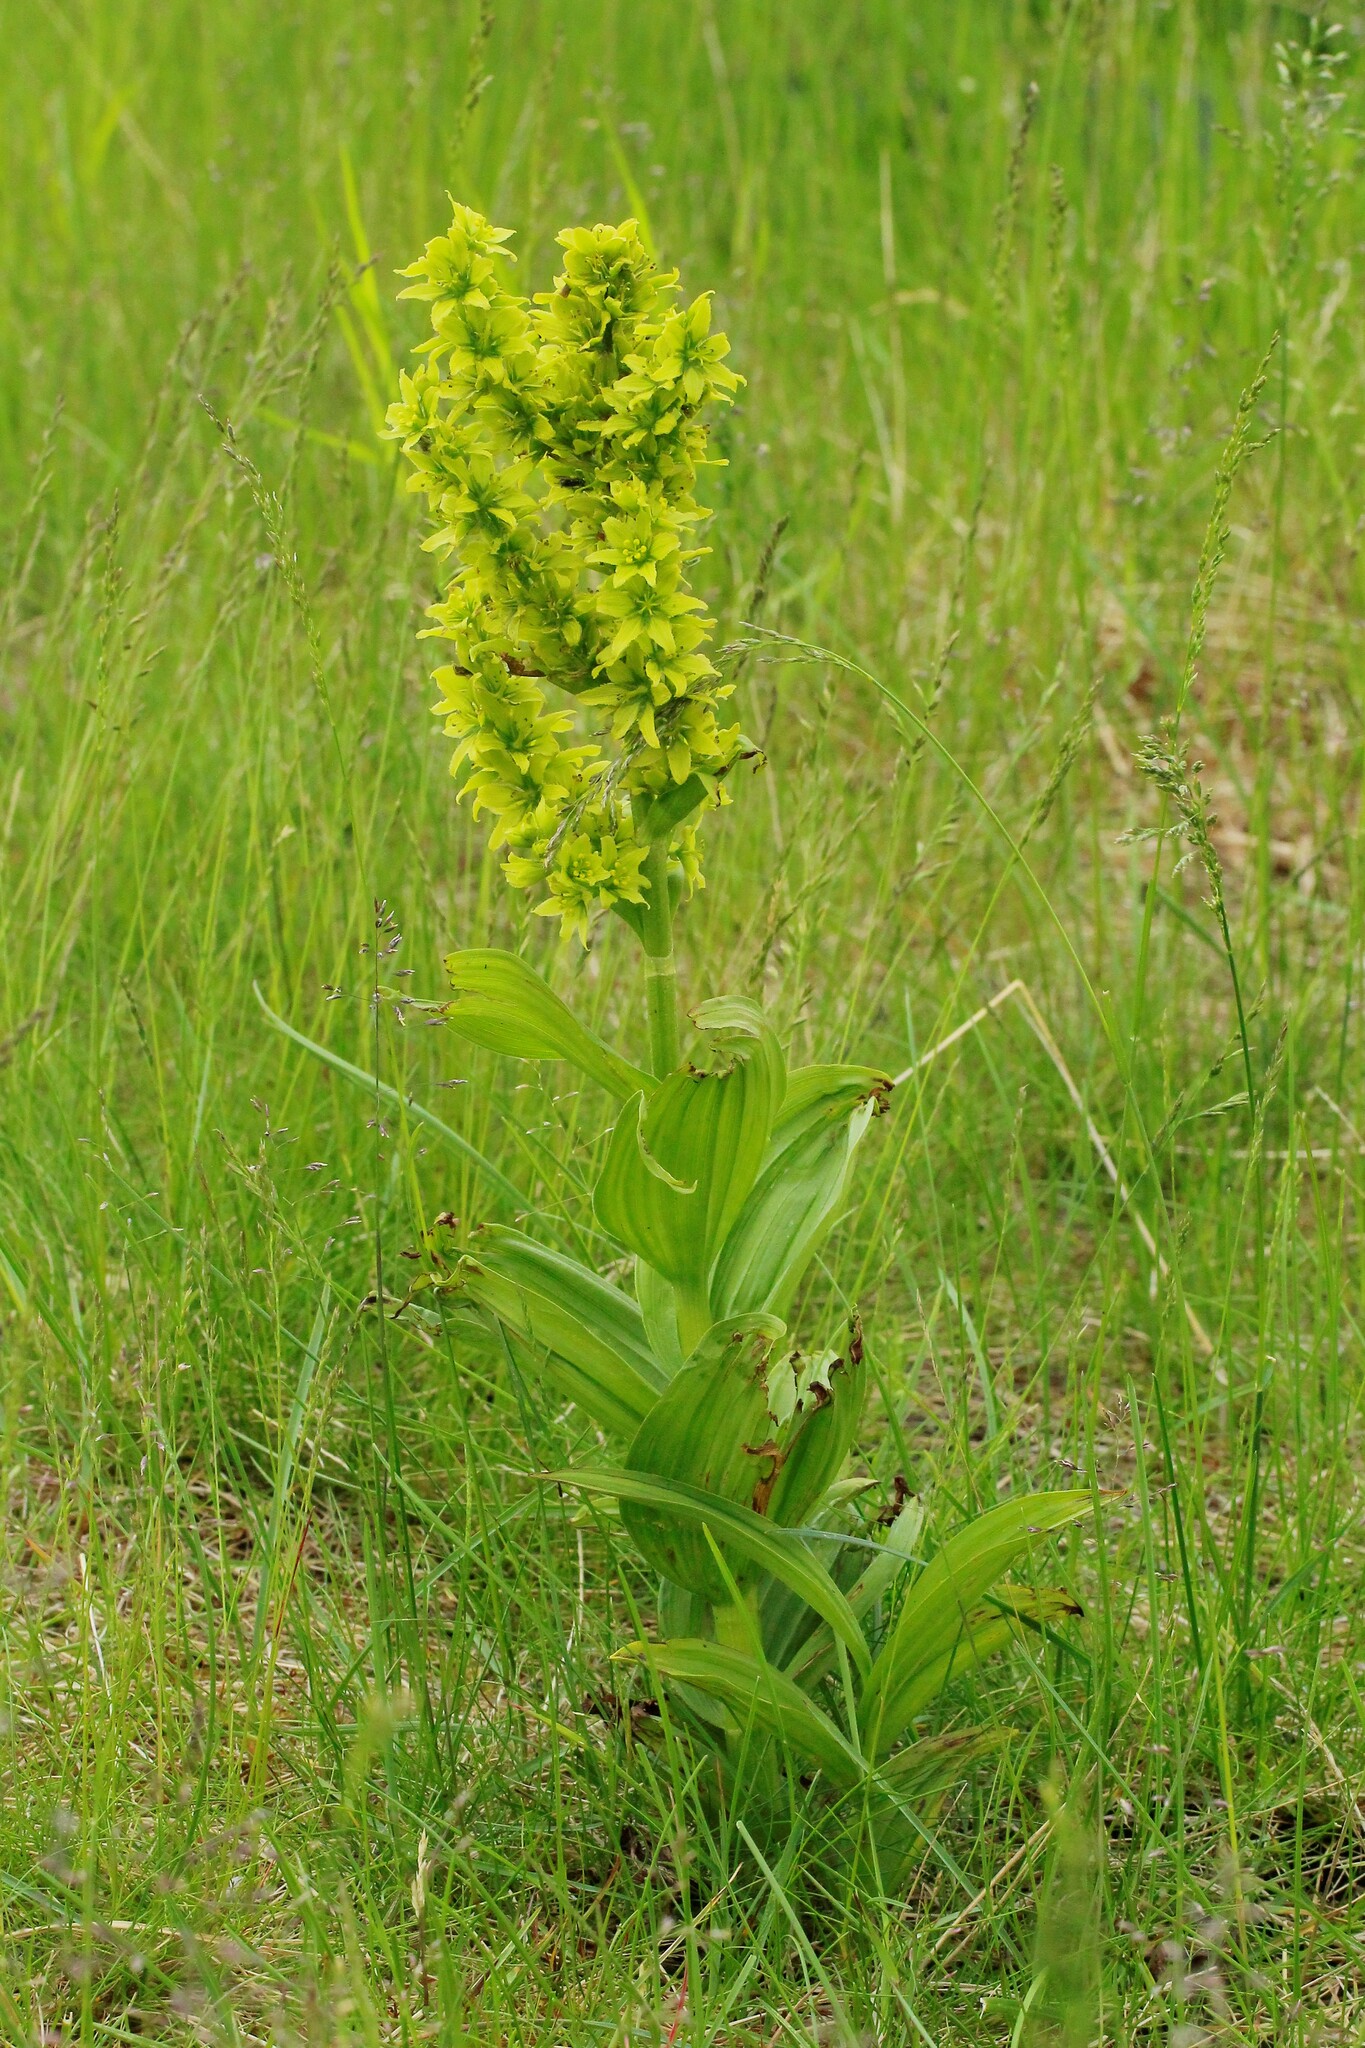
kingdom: Plantae
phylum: Tracheophyta
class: Liliopsida
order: Liliales
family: Melanthiaceae
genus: Veratrum
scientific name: Veratrum lobelianum
